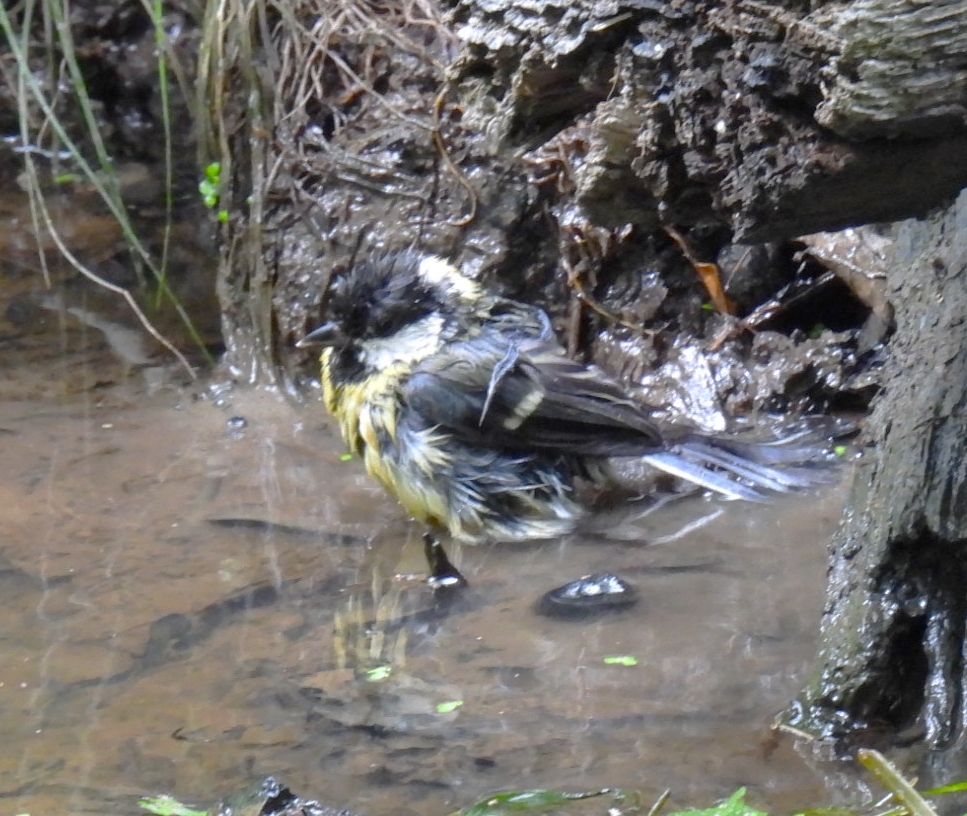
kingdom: Animalia
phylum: Chordata
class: Aves
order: Passeriformes
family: Paridae
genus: Parus
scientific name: Parus major
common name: Great tit
